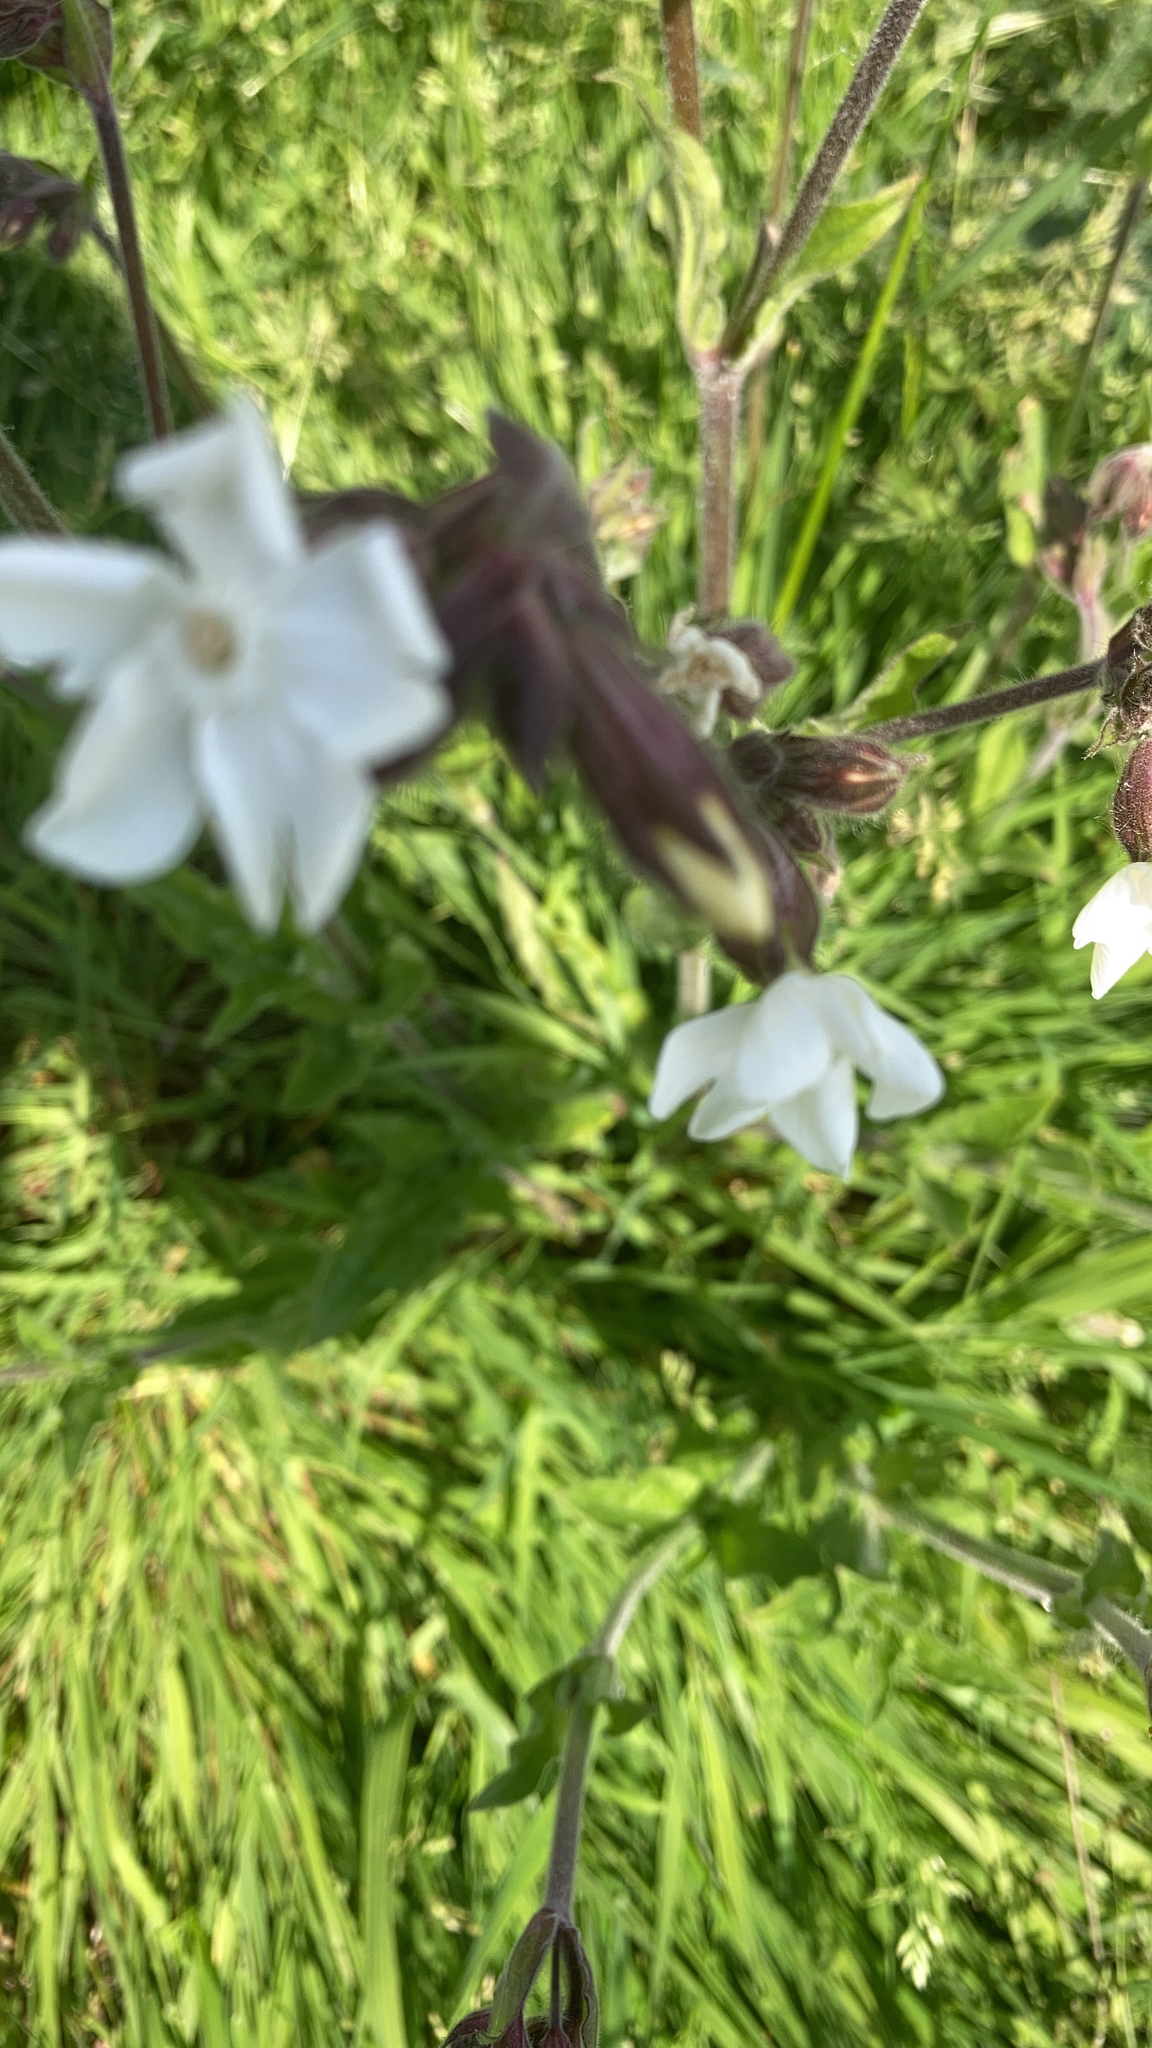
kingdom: Plantae
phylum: Tracheophyta
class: Magnoliopsida
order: Caryophyllales
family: Caryophyllaceae
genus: Silene
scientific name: Silene latifolia
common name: White campion
